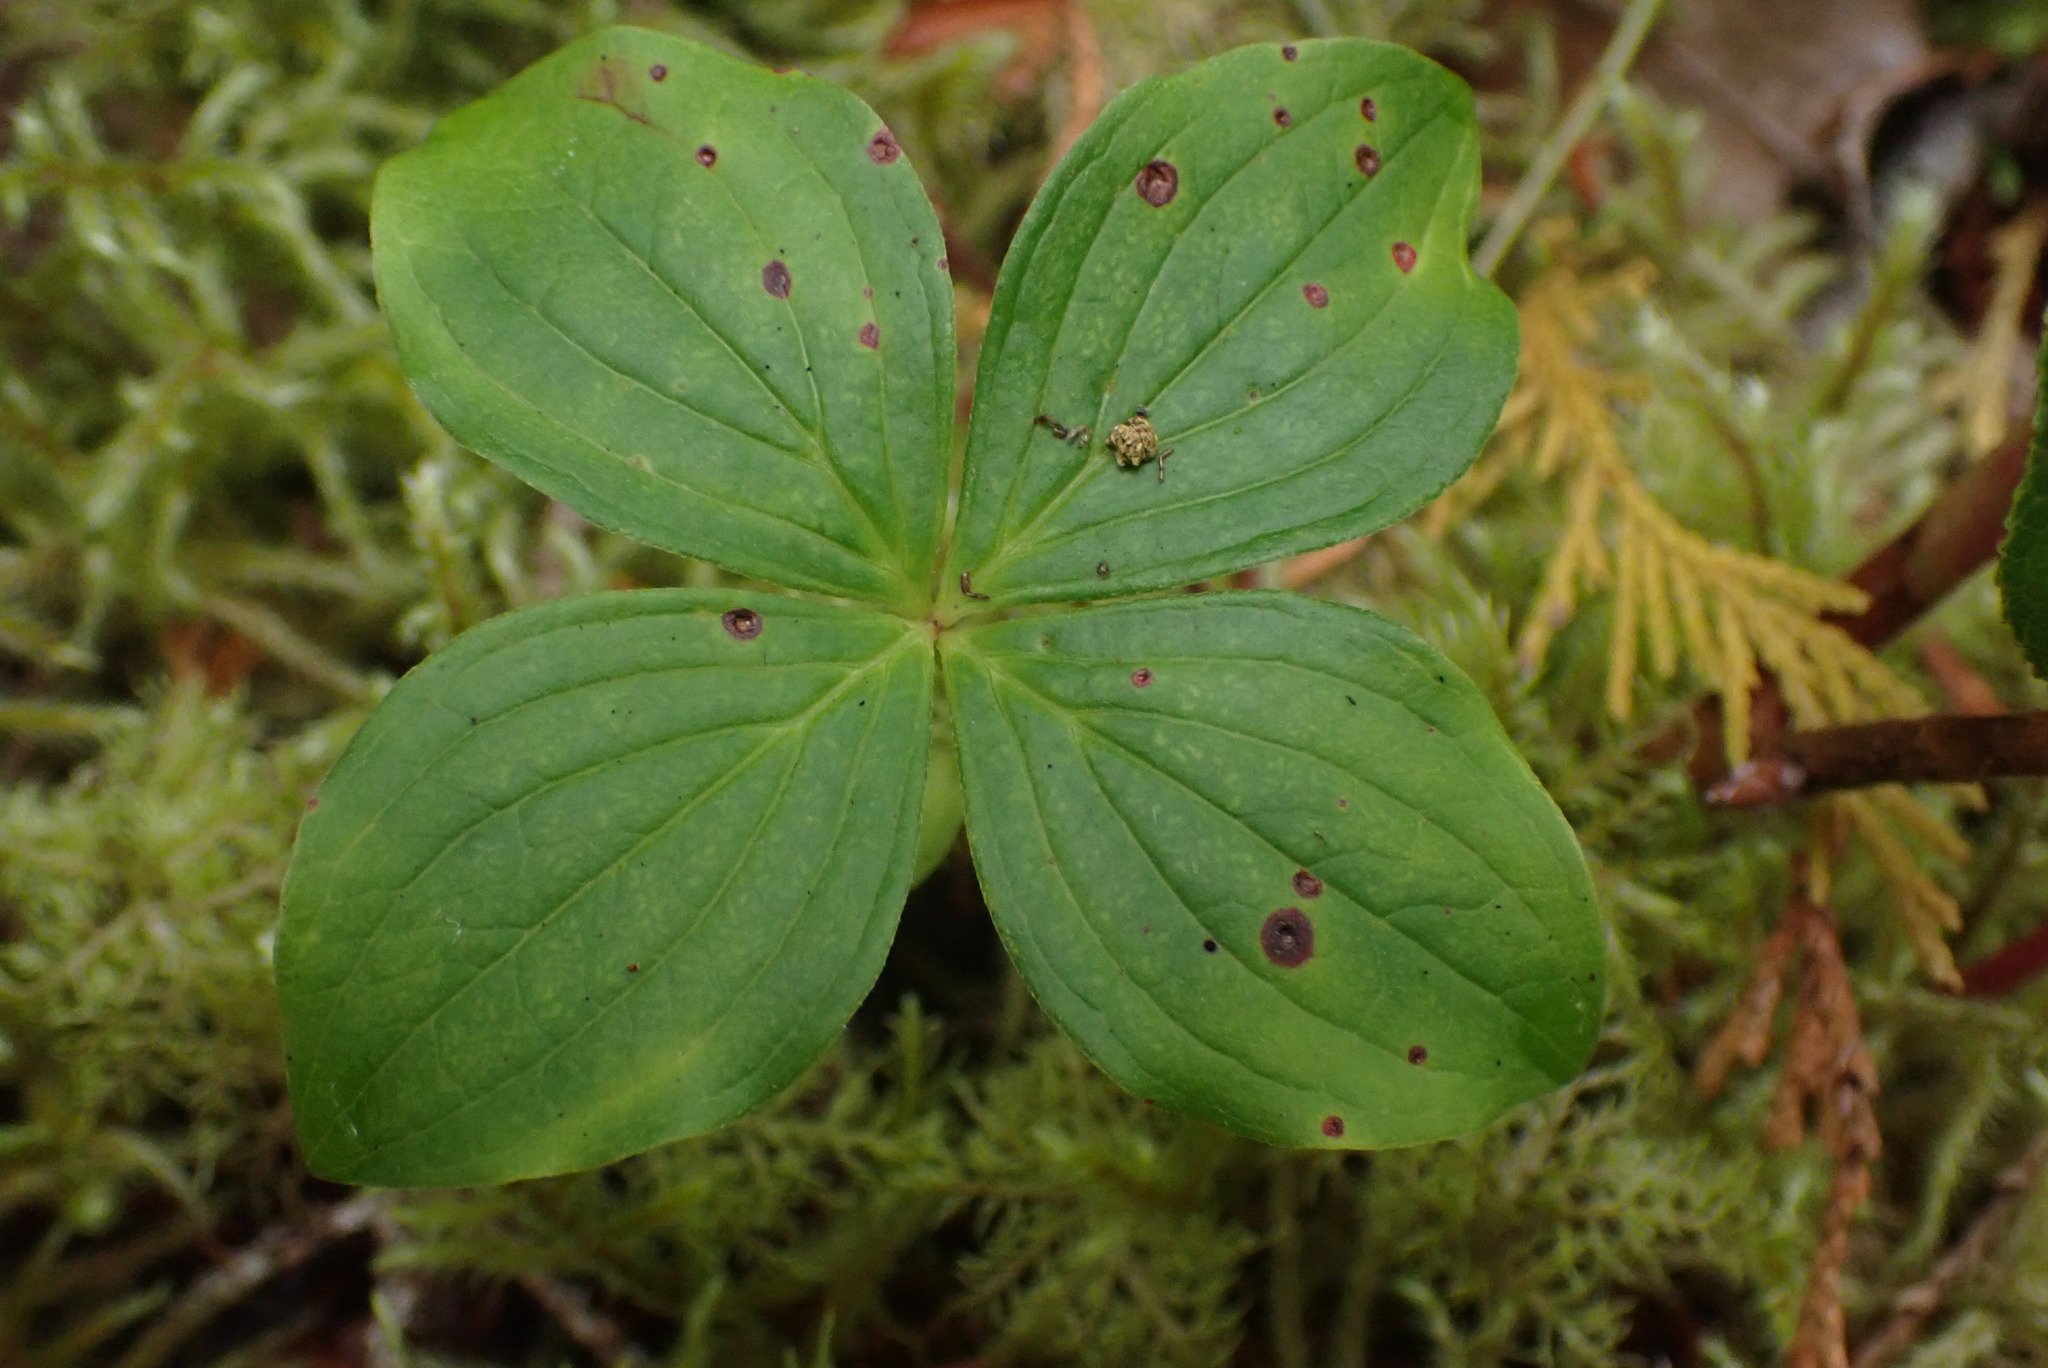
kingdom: Plantae
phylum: Tracheophyta
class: Magnoliopsida
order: Cornales
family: Cornaceae
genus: Cornus
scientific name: Cornus unalaschkensis
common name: Alaska bunchberry
